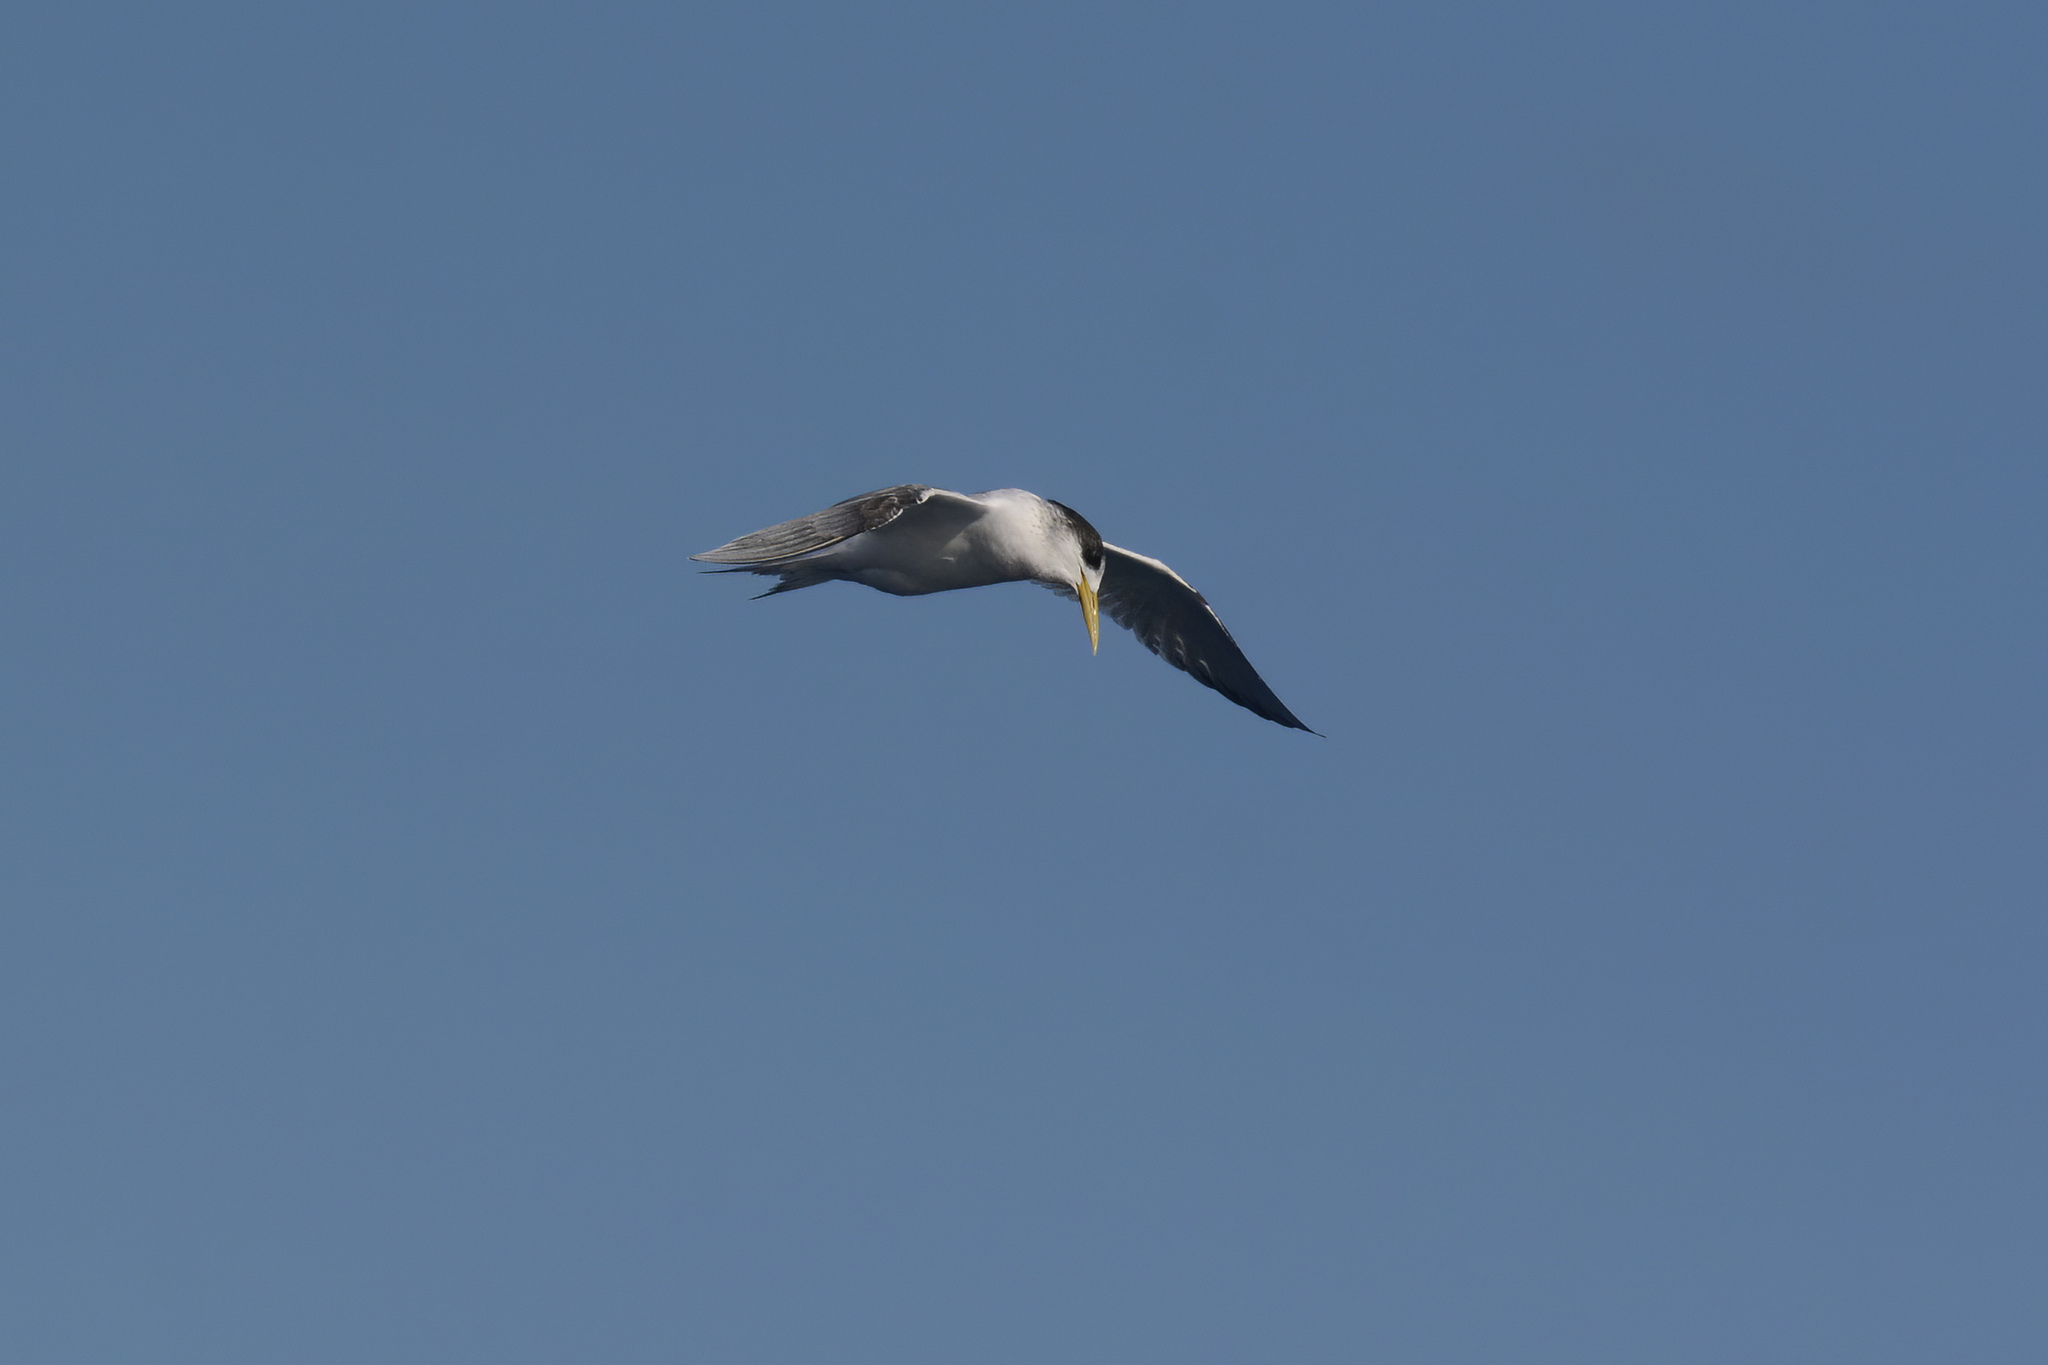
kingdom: Animalia
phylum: Chordata
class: Aves
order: Charadriiformes
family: Laridae
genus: Thalasseus
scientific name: Thalasseus bergii
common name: Greater crested tern
